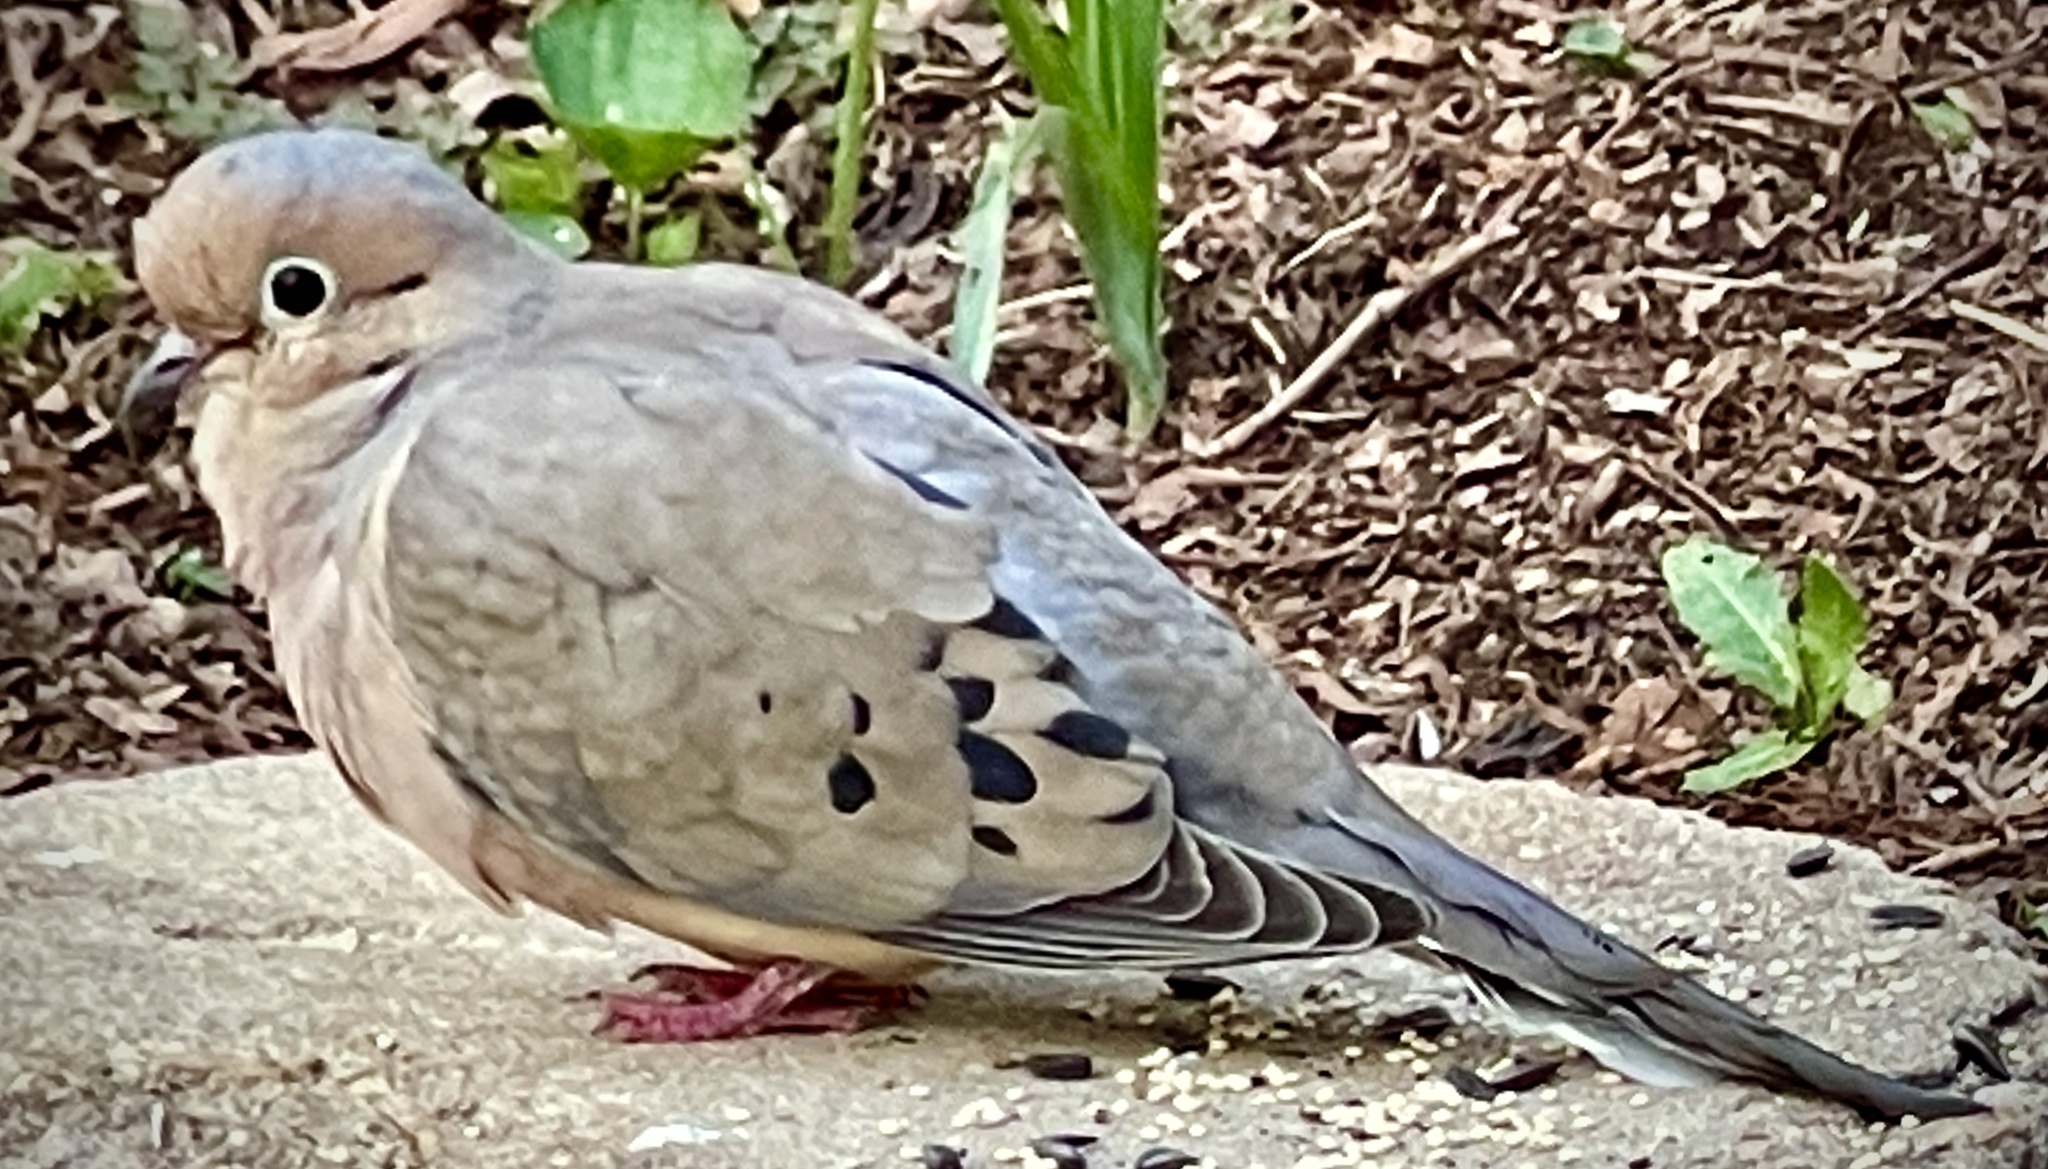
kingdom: Animalia
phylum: Chordata
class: Aves
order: Columbiformes
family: Columbidae
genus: Zenaida
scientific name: Zenaida macroura
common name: Mourning dove
